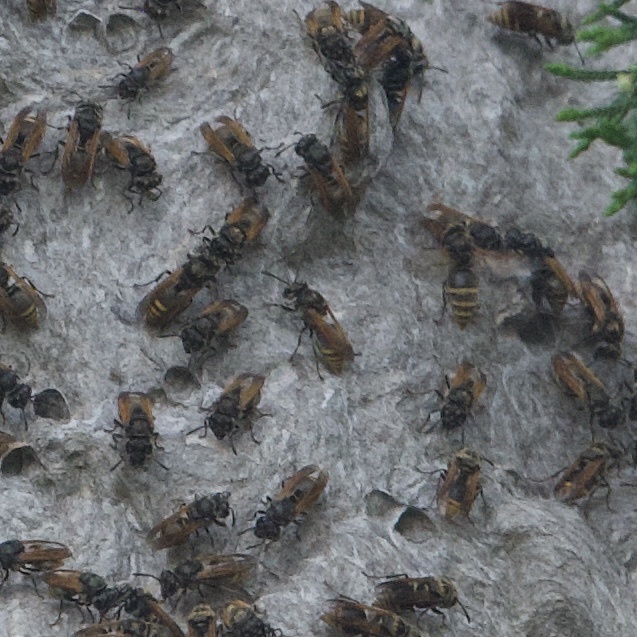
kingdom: Animalia
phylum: Arthropoda
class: Insecta
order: Hymenoptera
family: Vespidae
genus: Brachygastra
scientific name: Brachygastra mellifica
